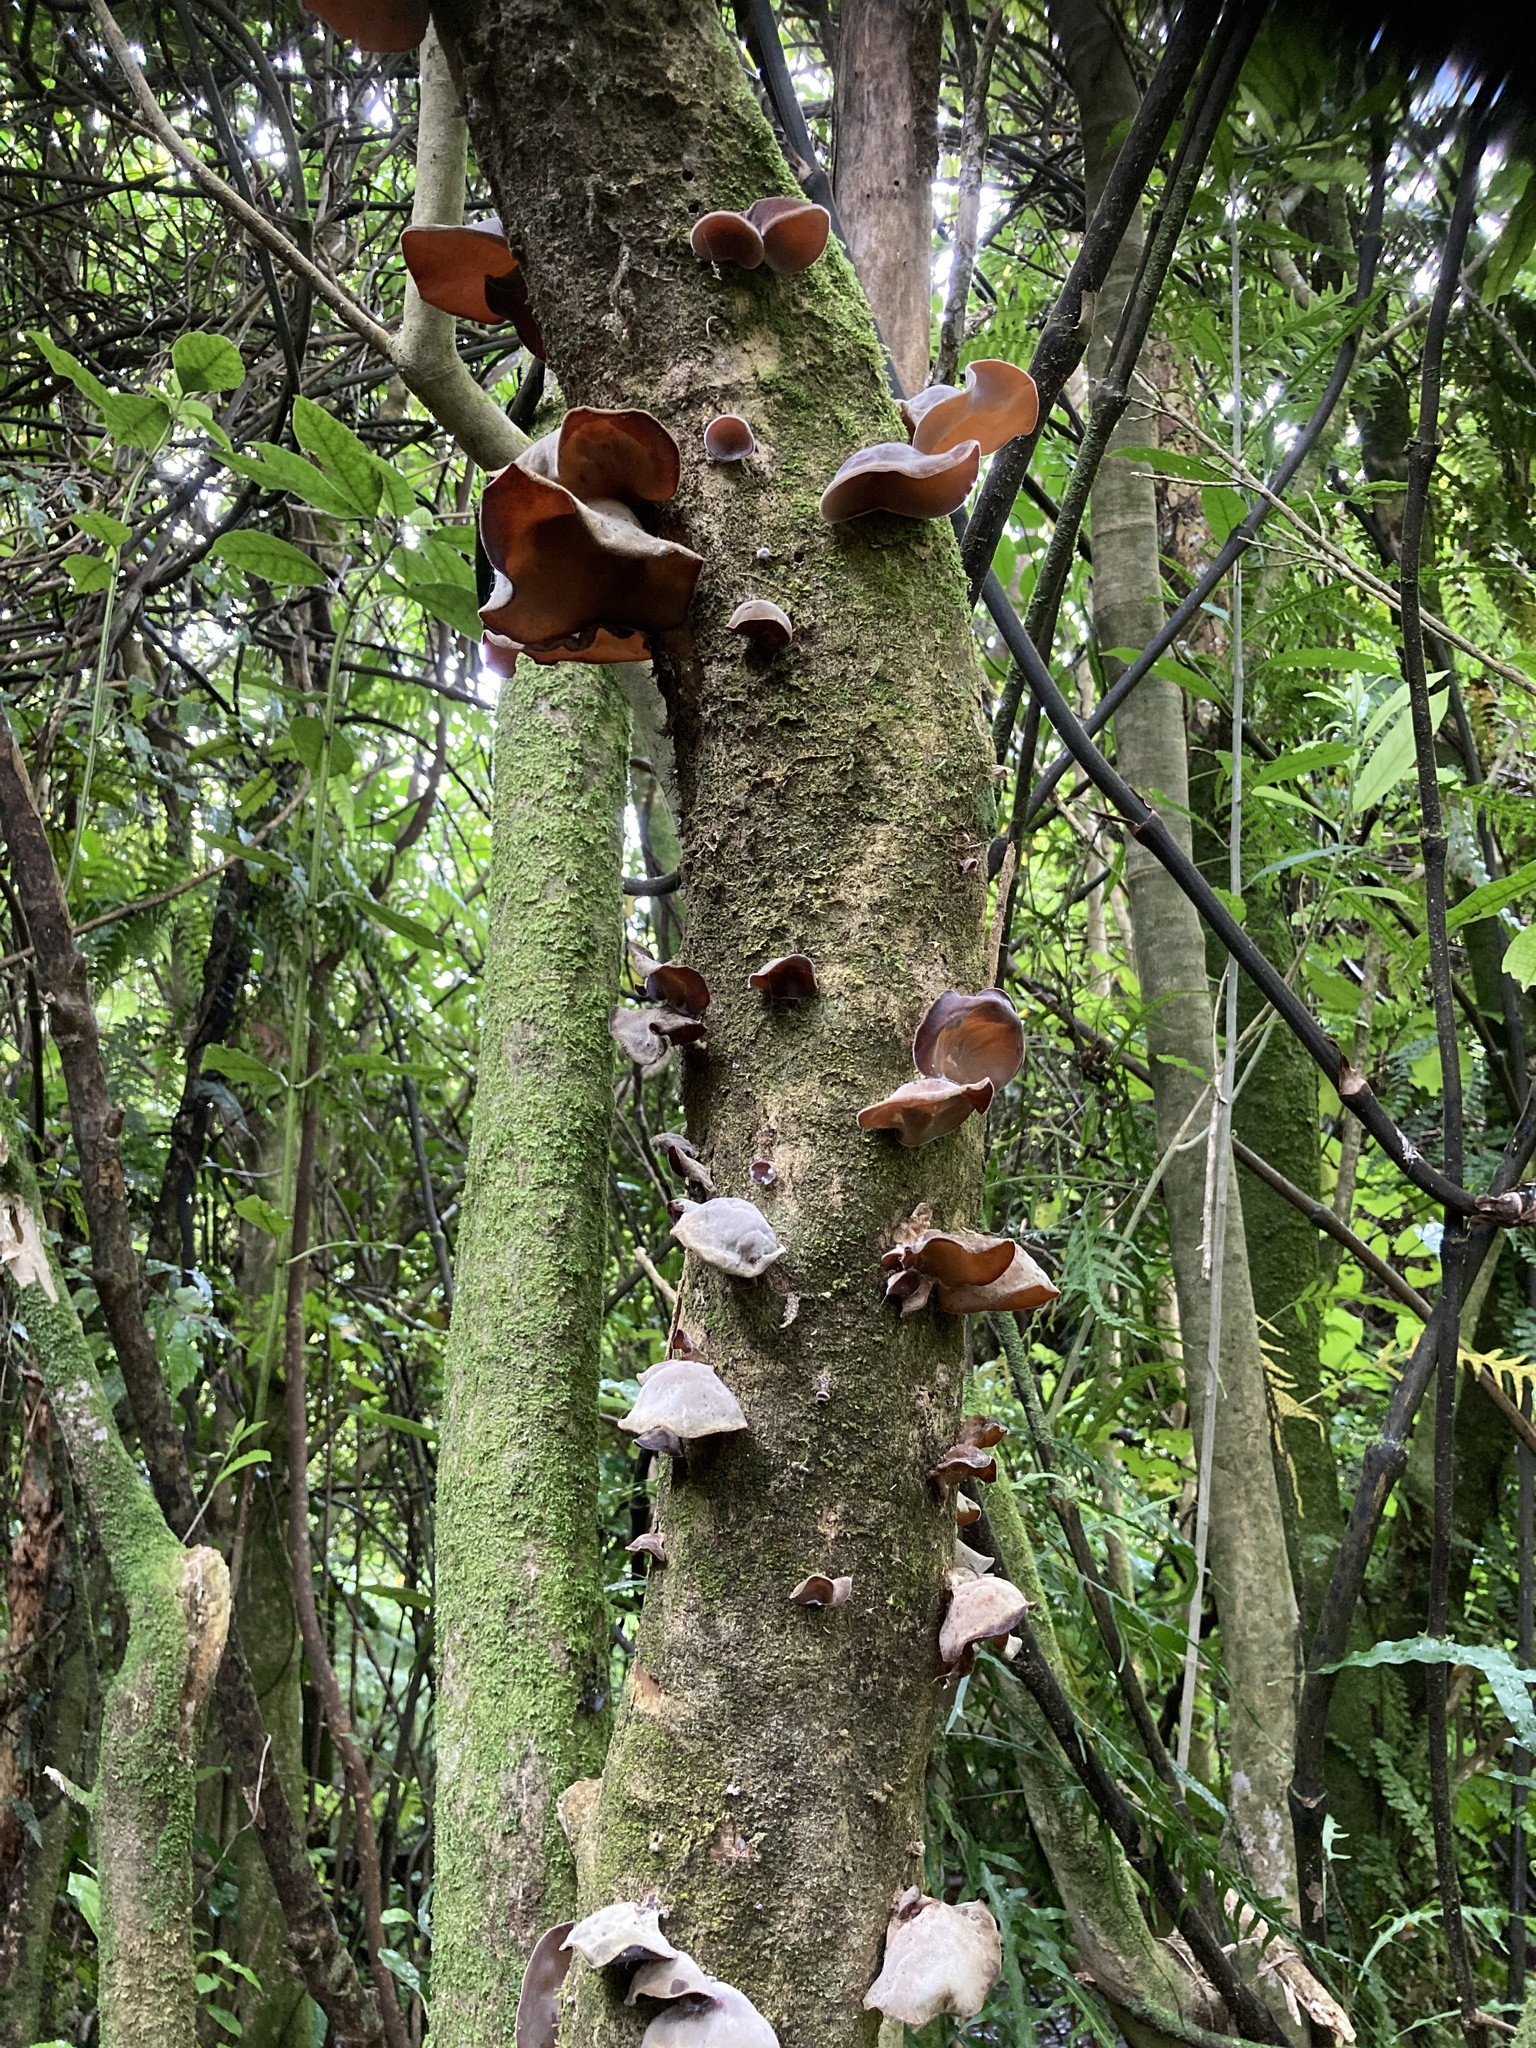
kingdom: Fungi
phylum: Basidiomycota
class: Agaricomycetes
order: Auriculariales
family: Auriculariaceae
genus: Auricularia
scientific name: Auricularia cornea
